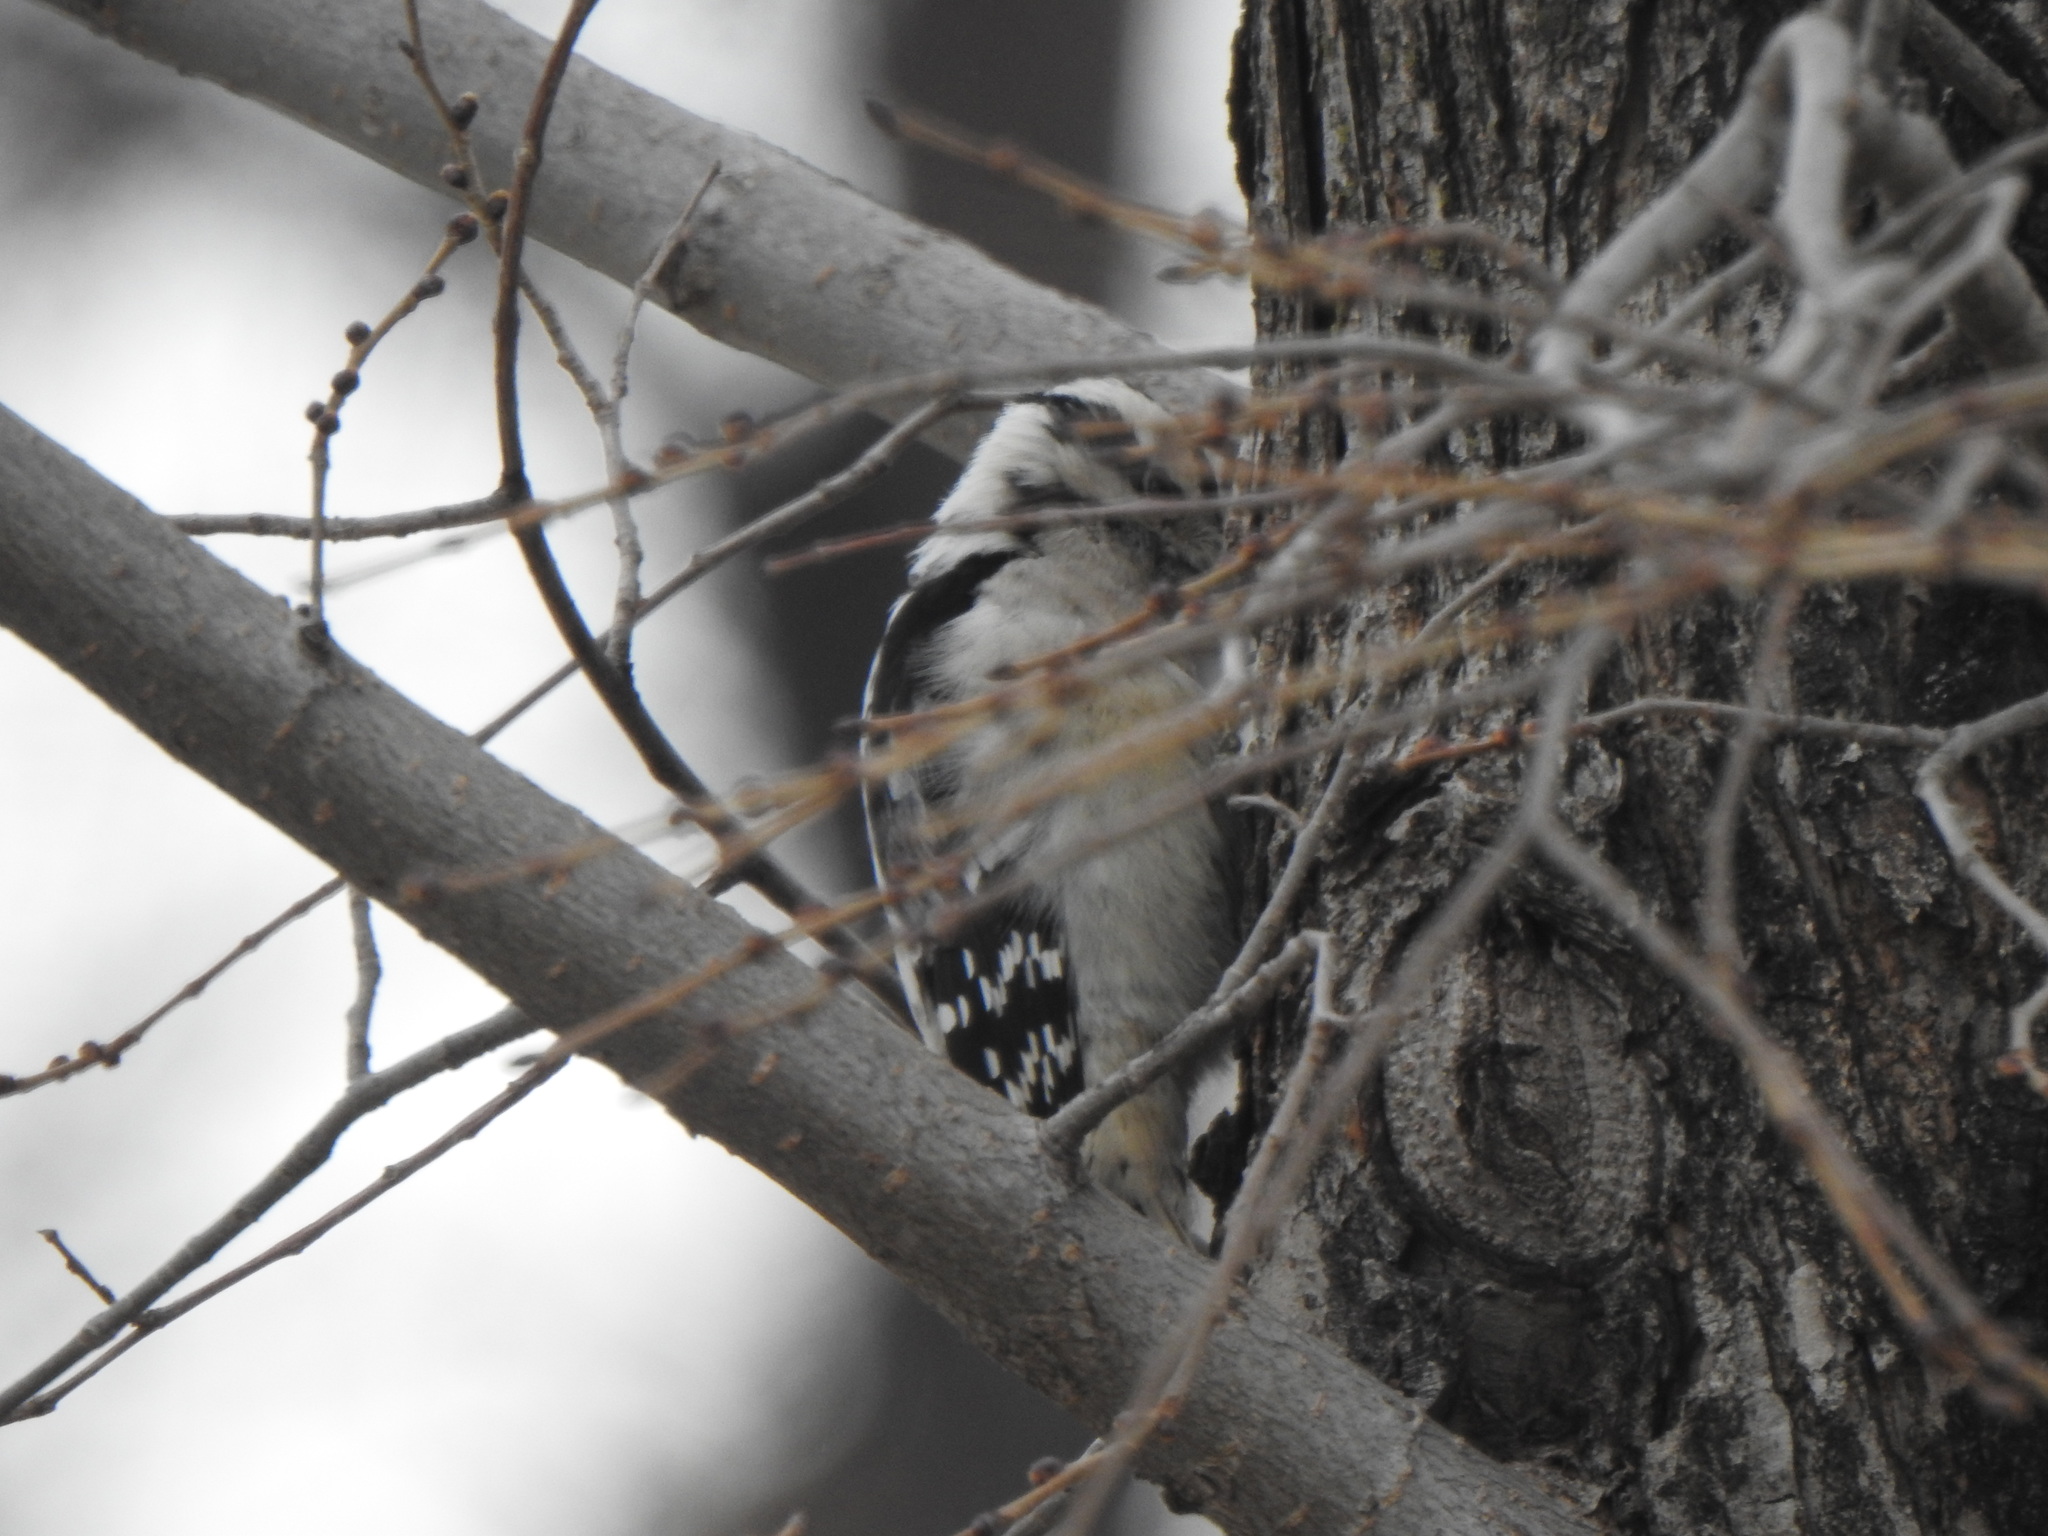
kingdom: Animalia
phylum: Chordata
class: Aves
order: Piciformes
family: Picidae
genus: Dryobates
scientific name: Dryobates pubescens
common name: Downy woodpecker
